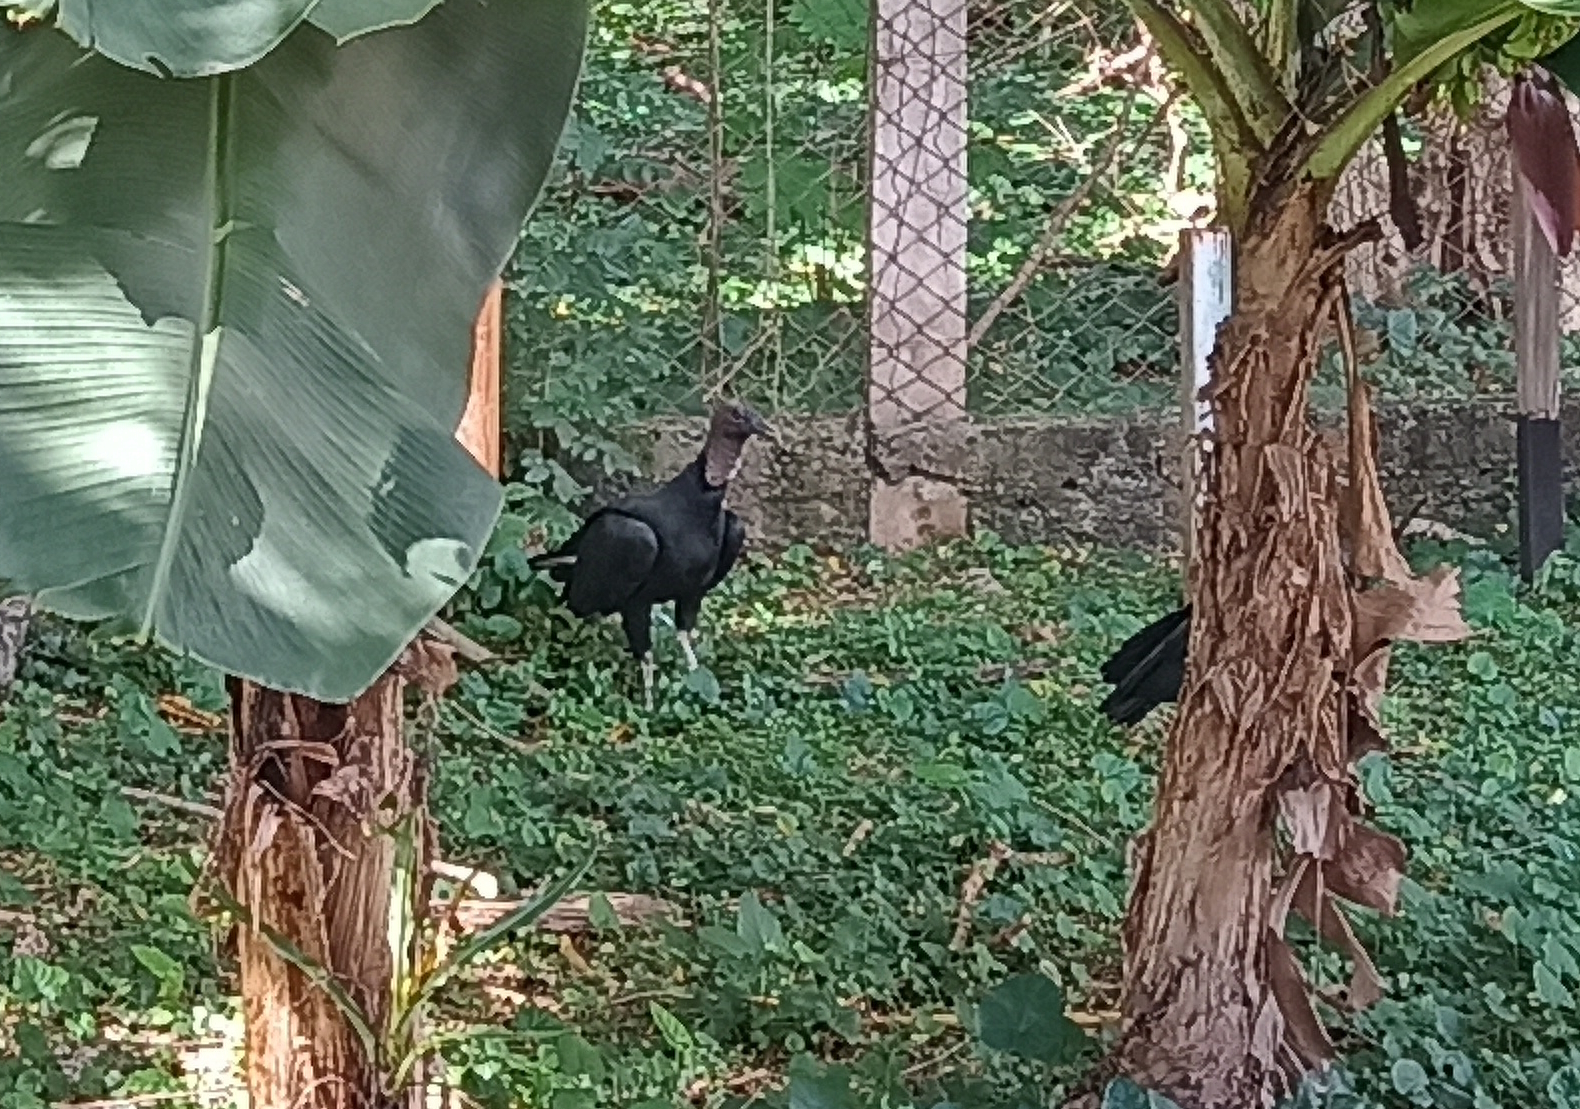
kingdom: Animalia
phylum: Chordata
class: Aves
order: Accipitriformes
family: Cathartidae
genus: Coragyps
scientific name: Coragyps atratus
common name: Black vulture
